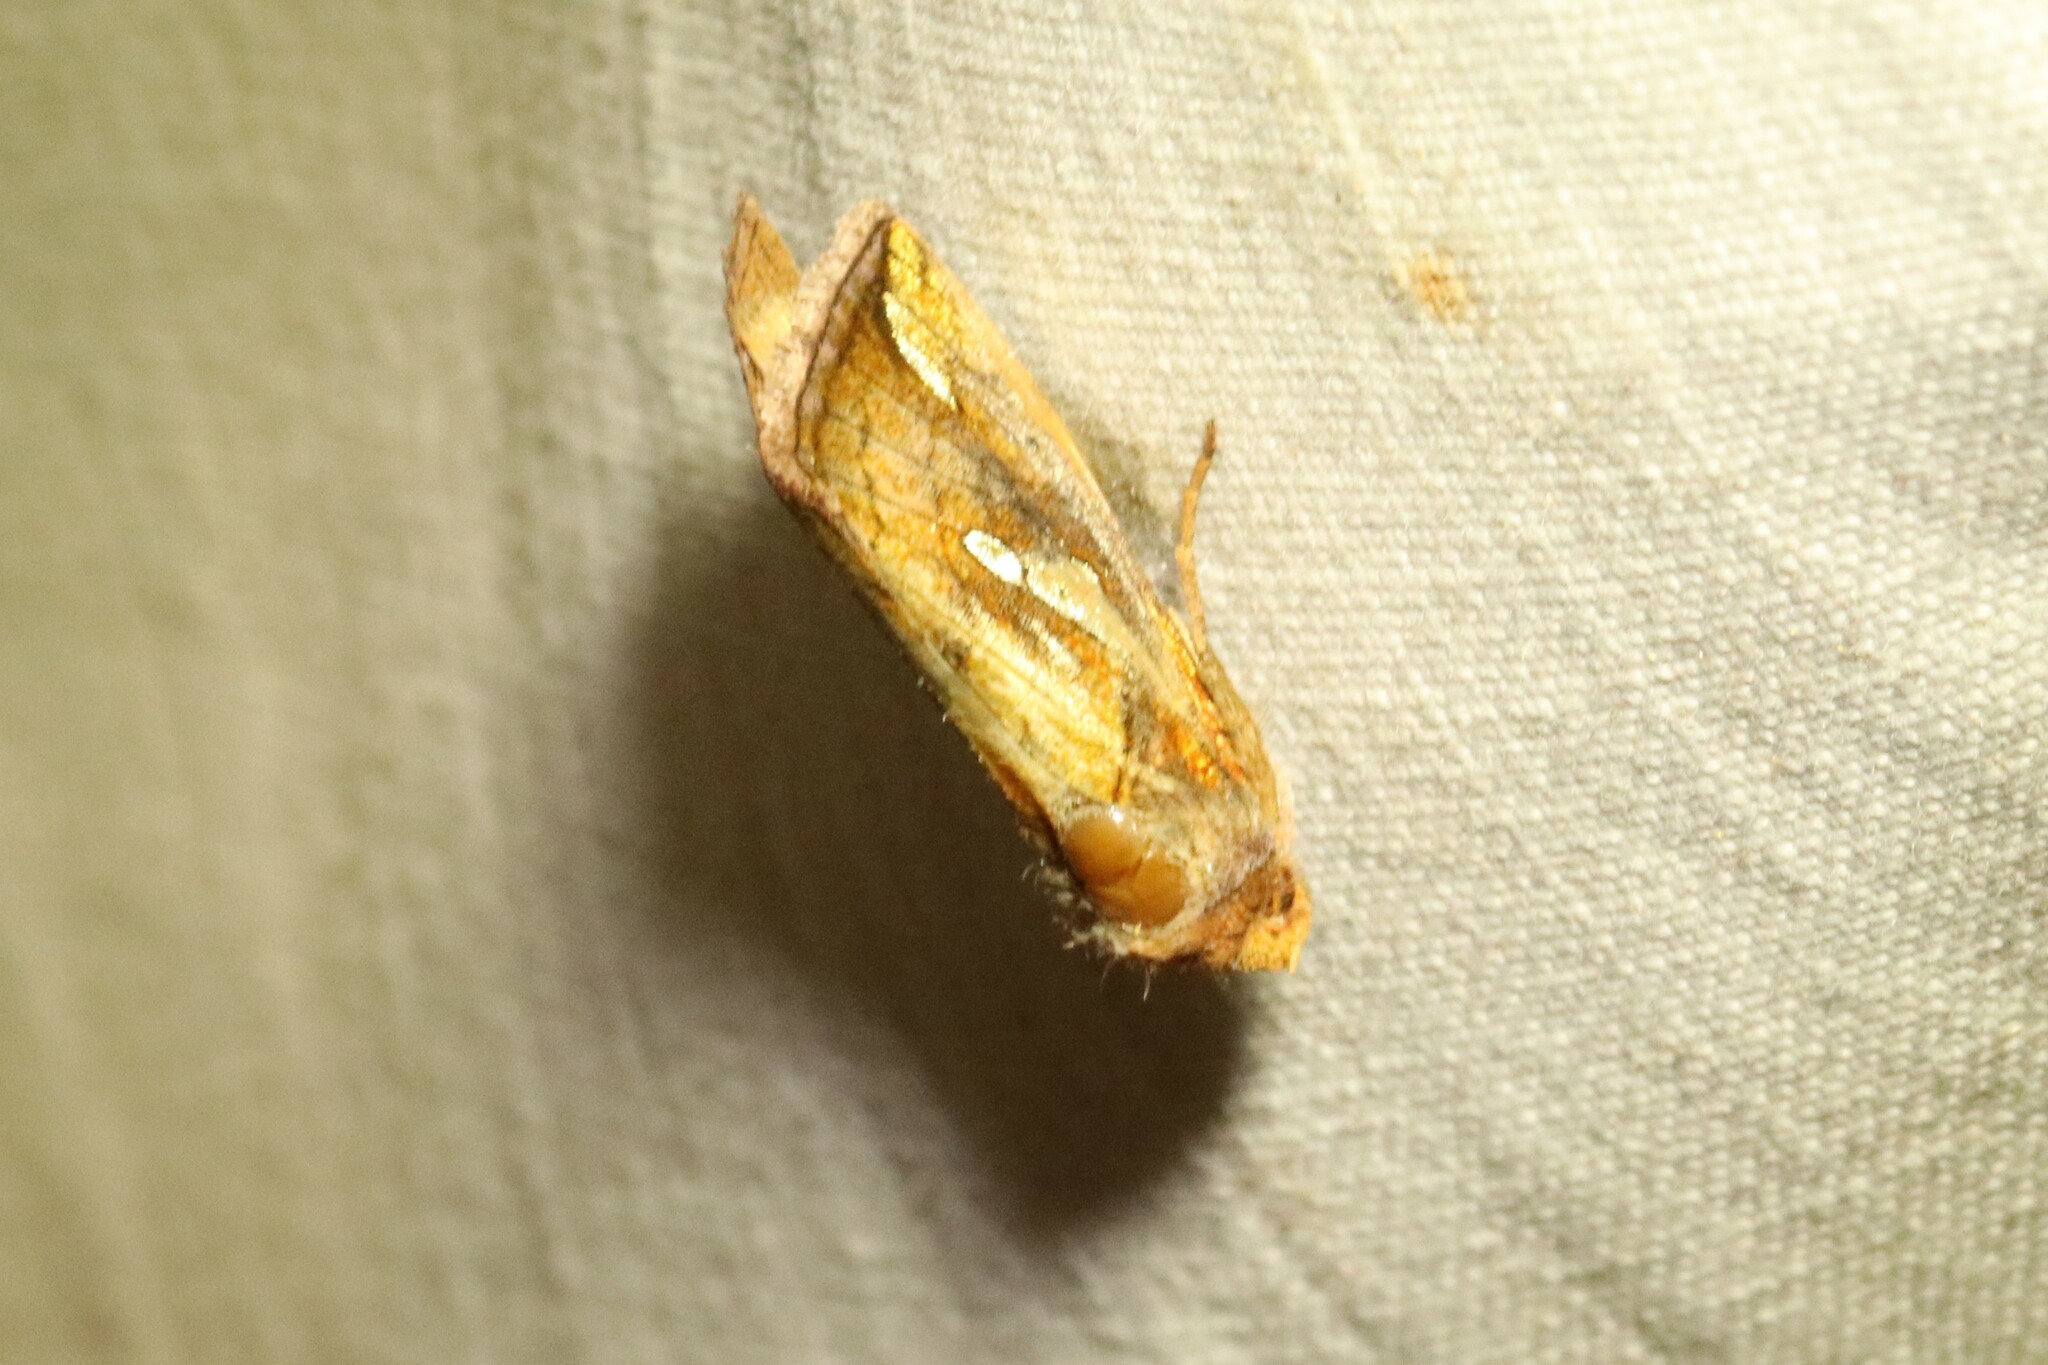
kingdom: Animalia
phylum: Arthropoda
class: Insecta
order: Lepidoptera
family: Noctuidae
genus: Plusia
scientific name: Plusia putnami
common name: Lempke's gold spot
